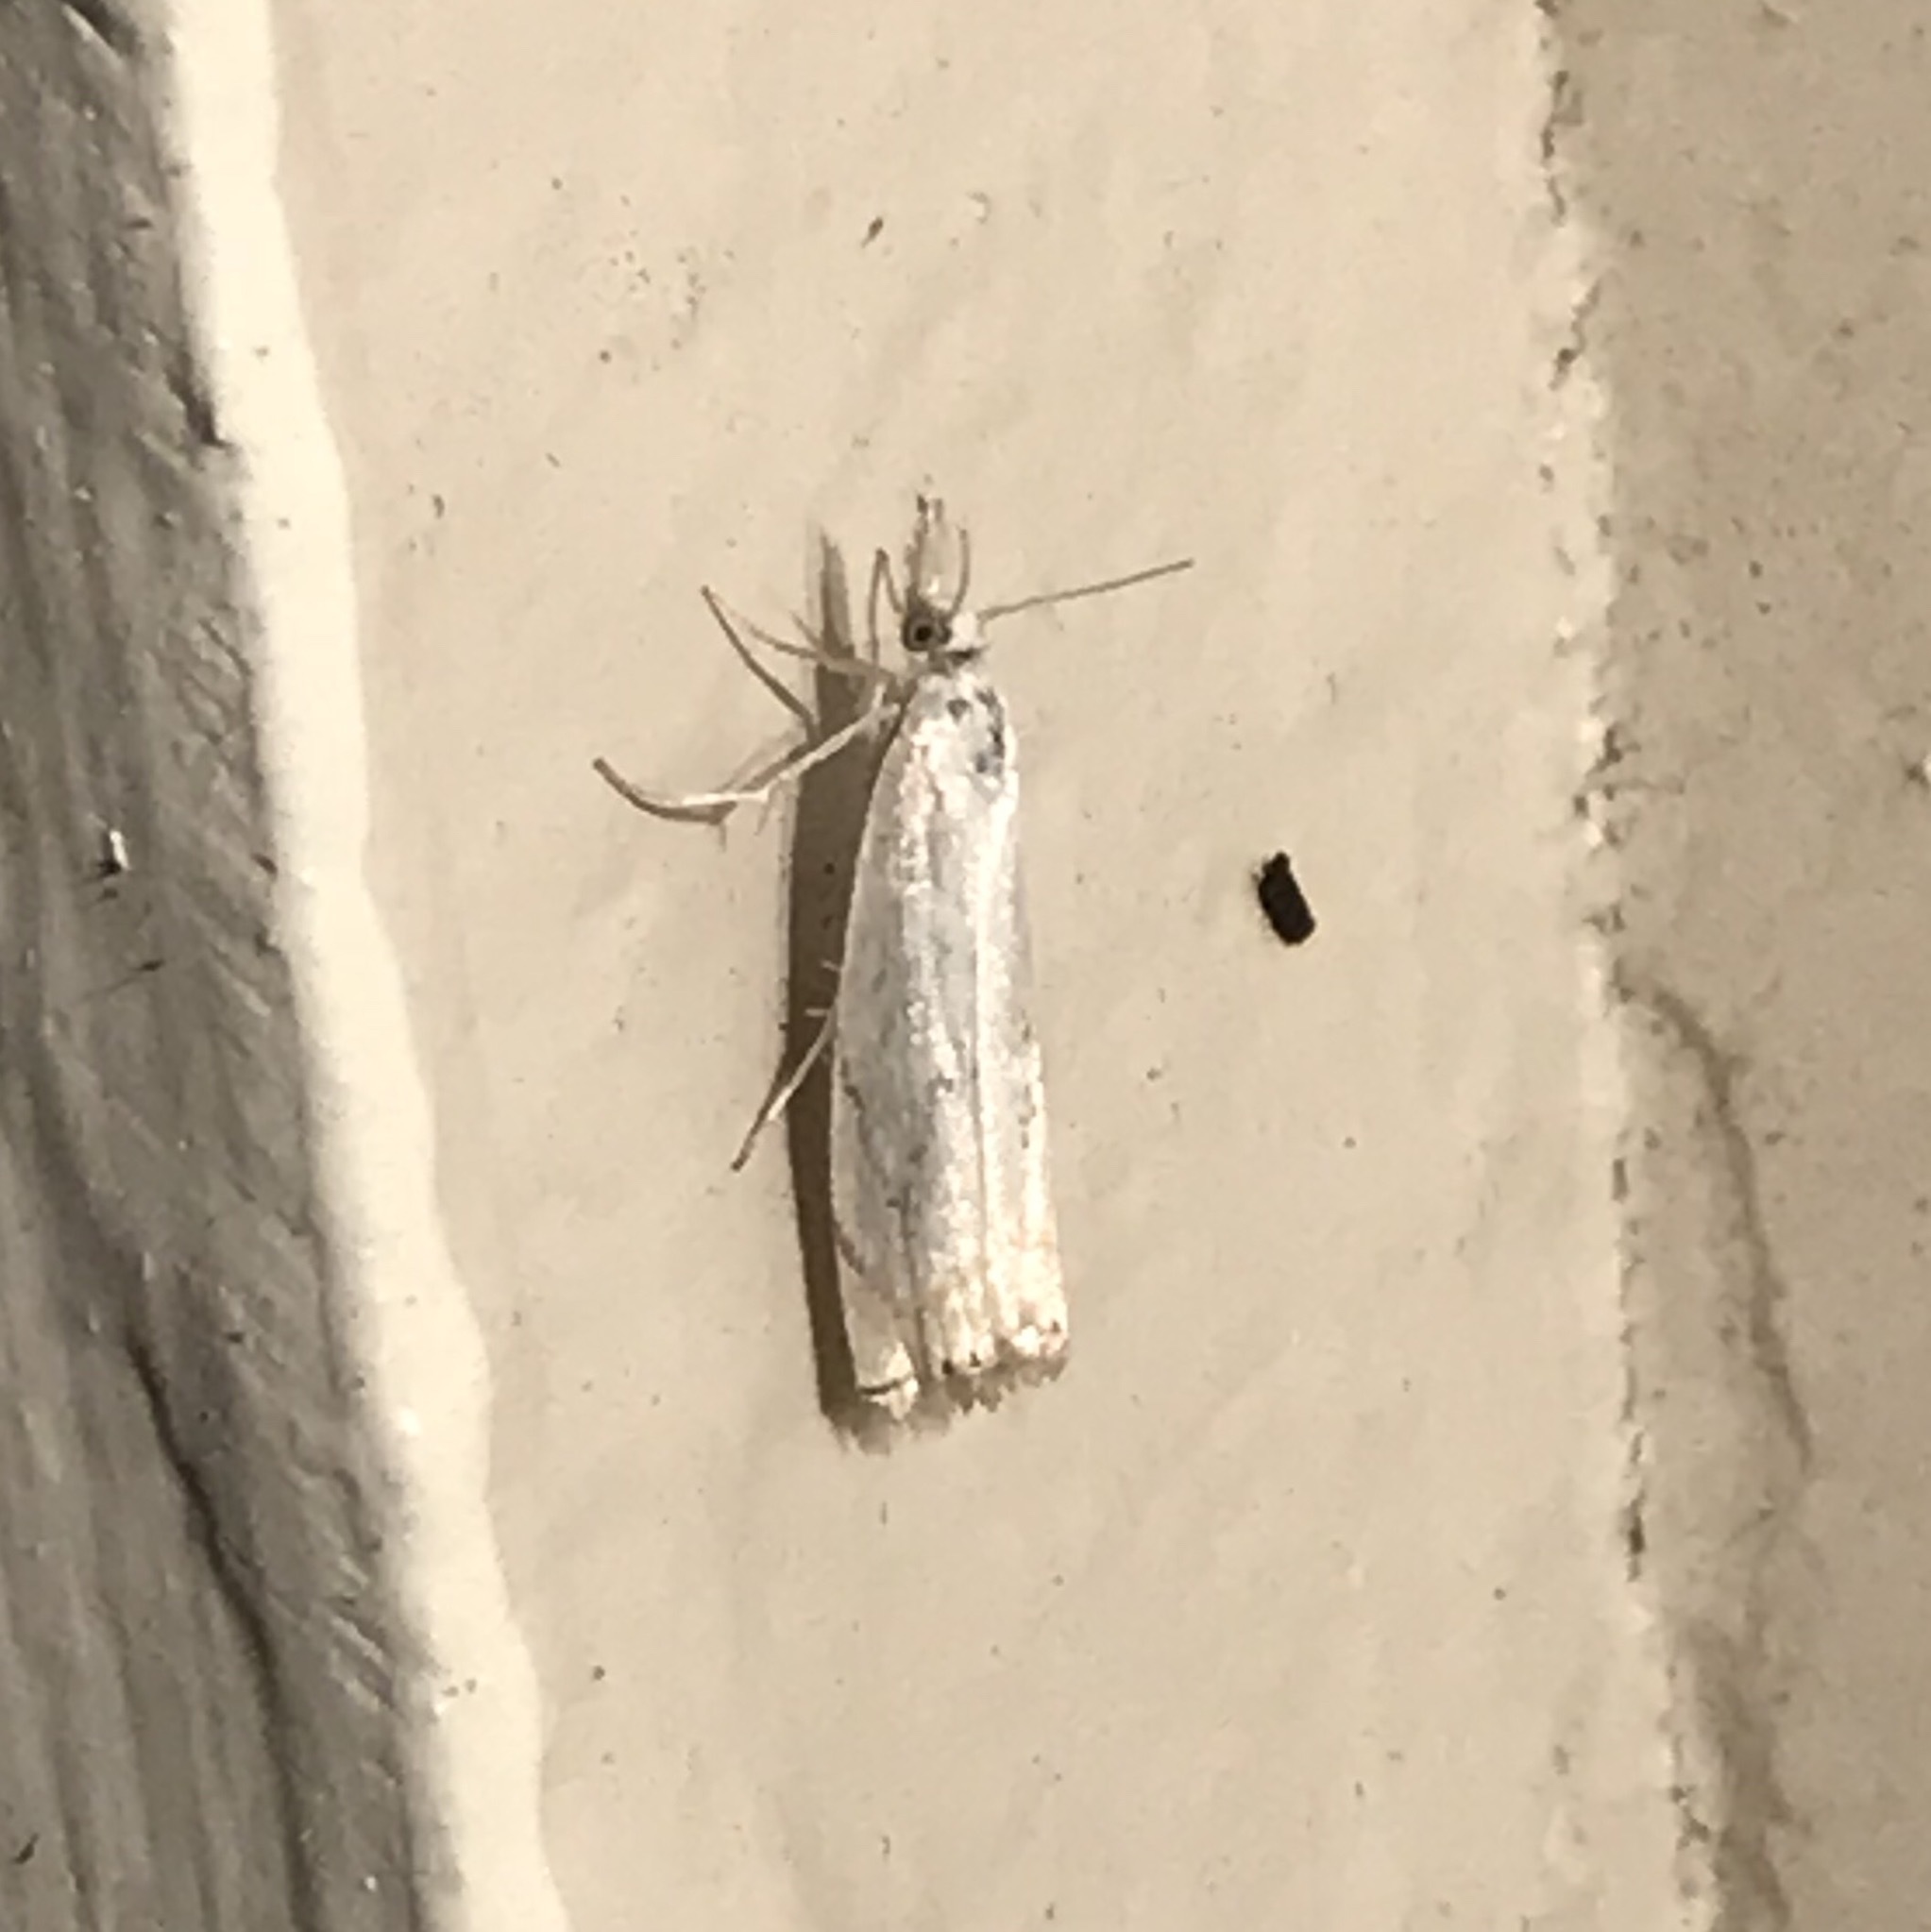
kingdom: Animalia
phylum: Arthropoda
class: Insecta
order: Lepidoptera
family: Crambidae
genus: Crambus
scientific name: Crambus albellus
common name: Small white grass-veneer
